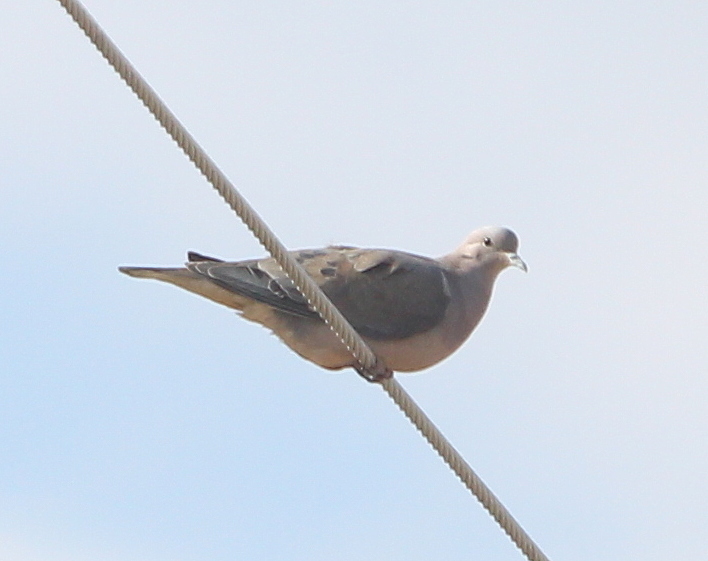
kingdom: Animalia
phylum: Chordata
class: Aves
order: Columbiformes
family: Columbidae
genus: Zenaida
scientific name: Zenaida auriculata
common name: Eared dove
